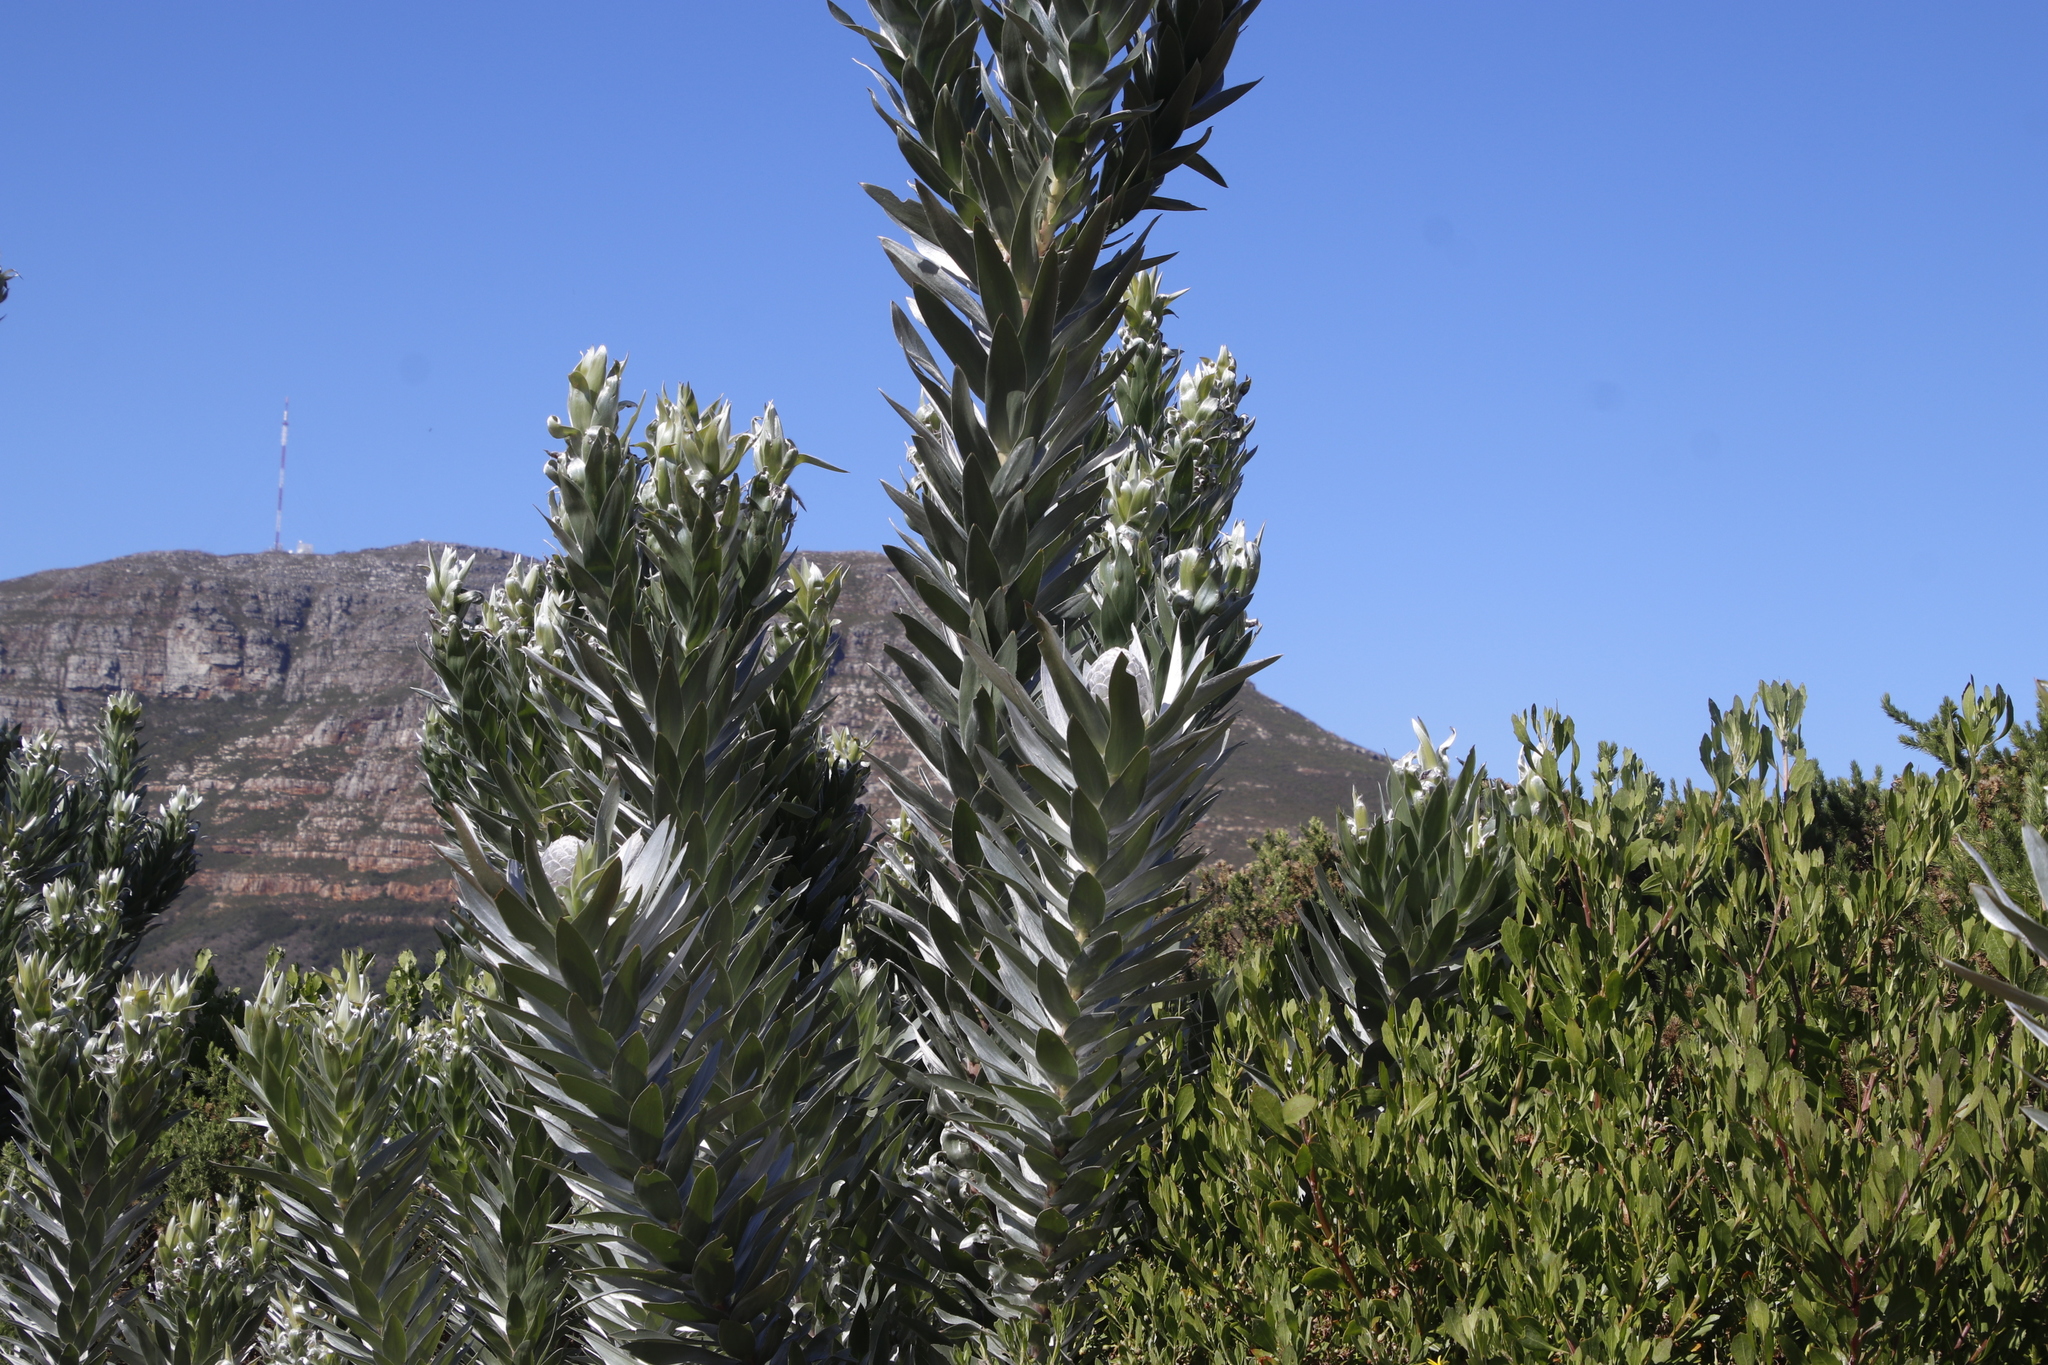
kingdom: Plantae
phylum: Tracheophyta
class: Magnoliopsida
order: Proteales
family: Proteaceae
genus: Leucadendron
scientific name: Leucadendron argenteum
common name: Cape silver tree
